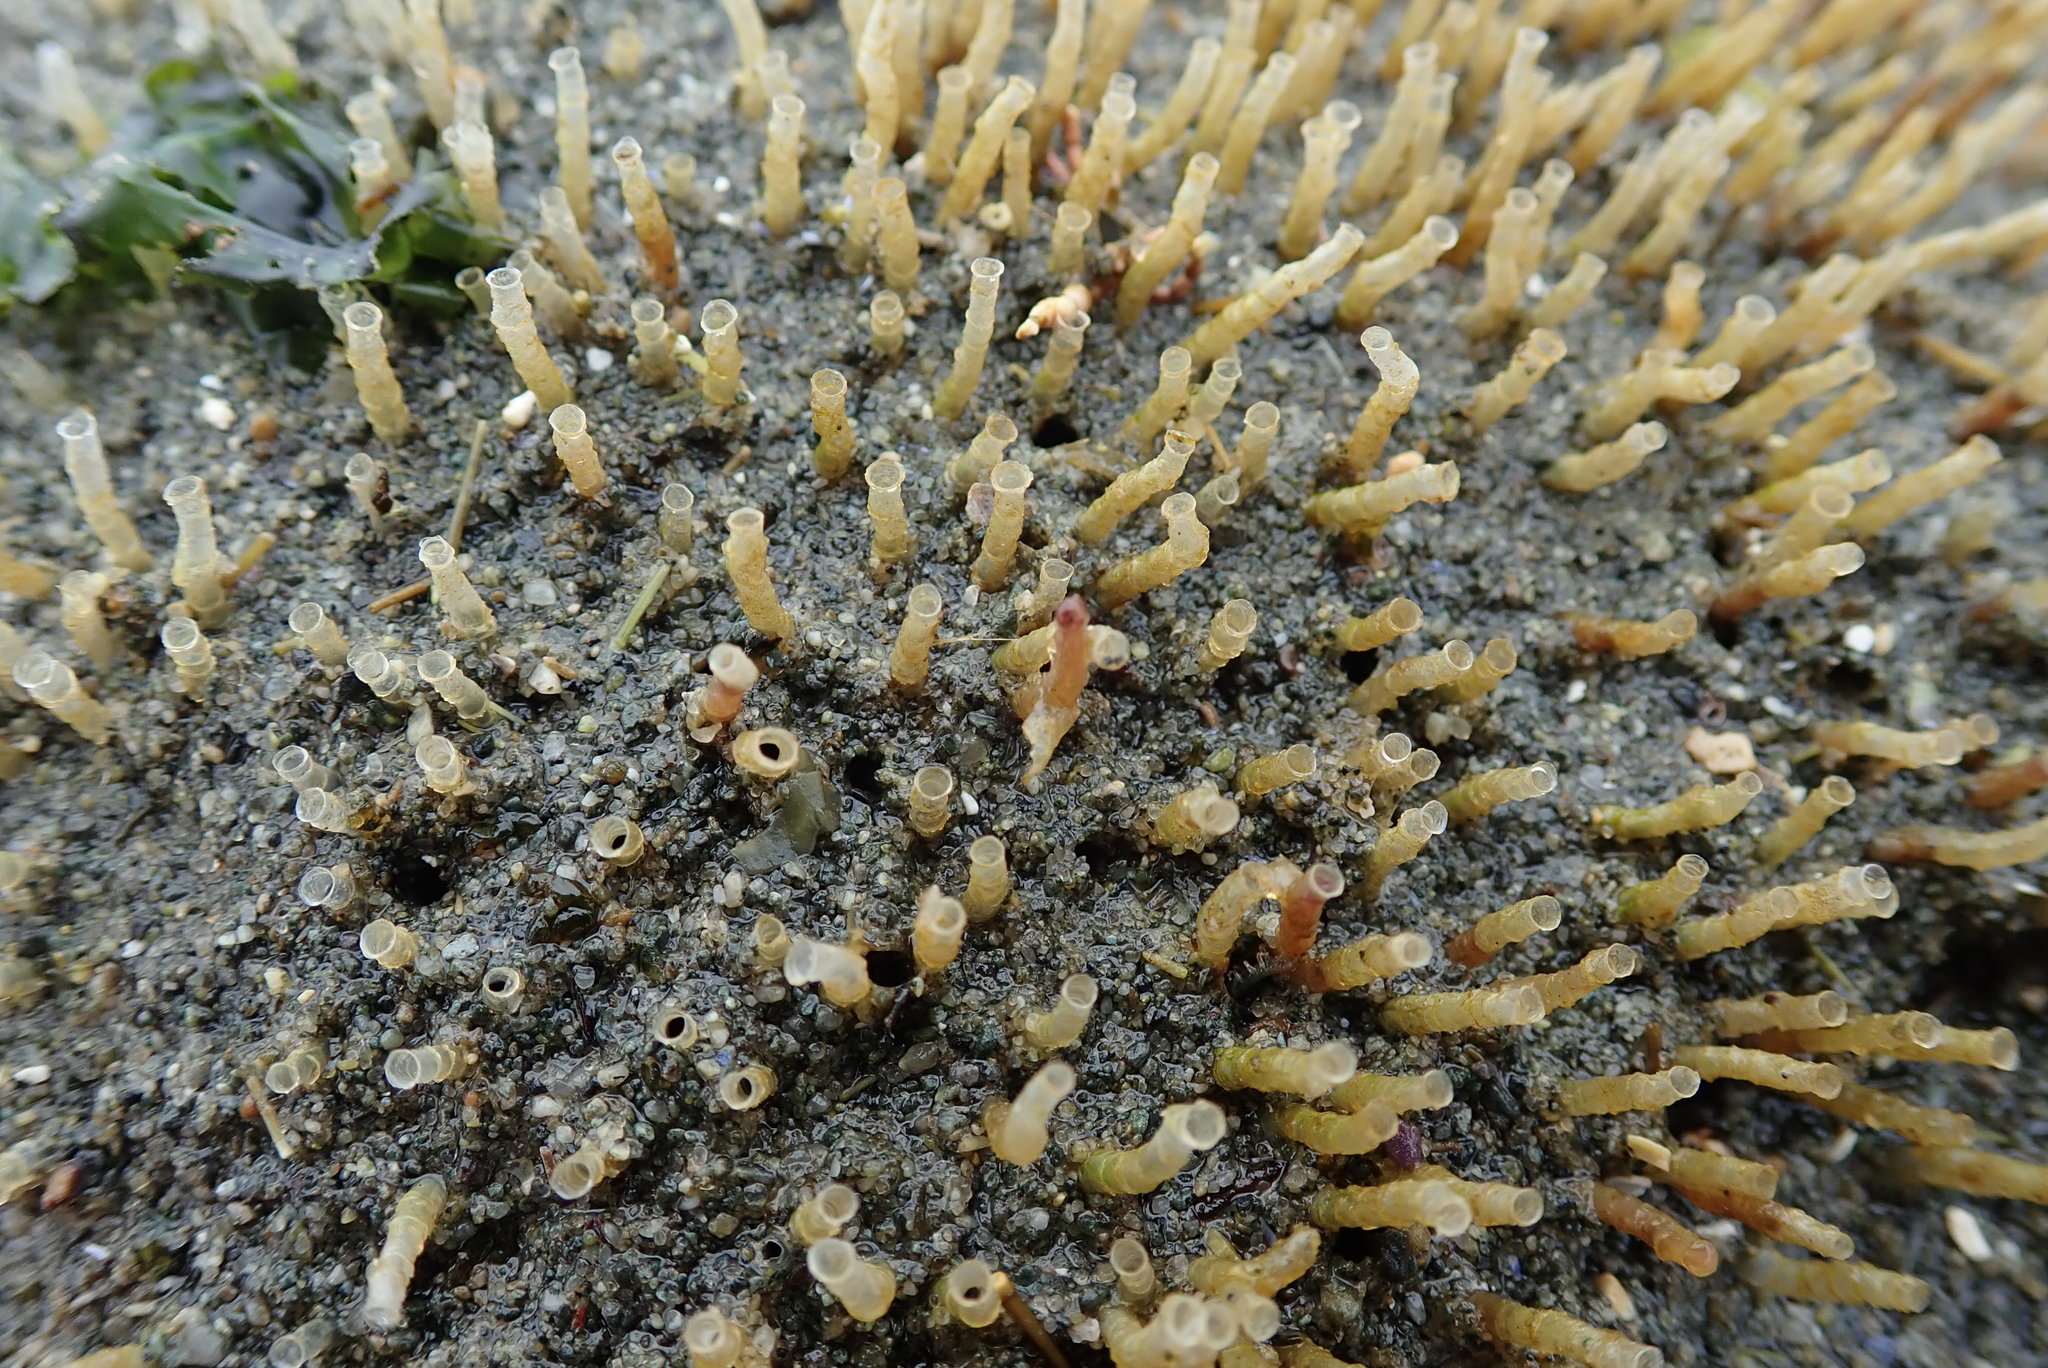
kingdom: Animalia
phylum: Annelida
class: Polychaeta
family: Chaetopteridae
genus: Spiochaetopterus
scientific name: Spiochaetopterus costarum
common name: Glassy tubeworm
